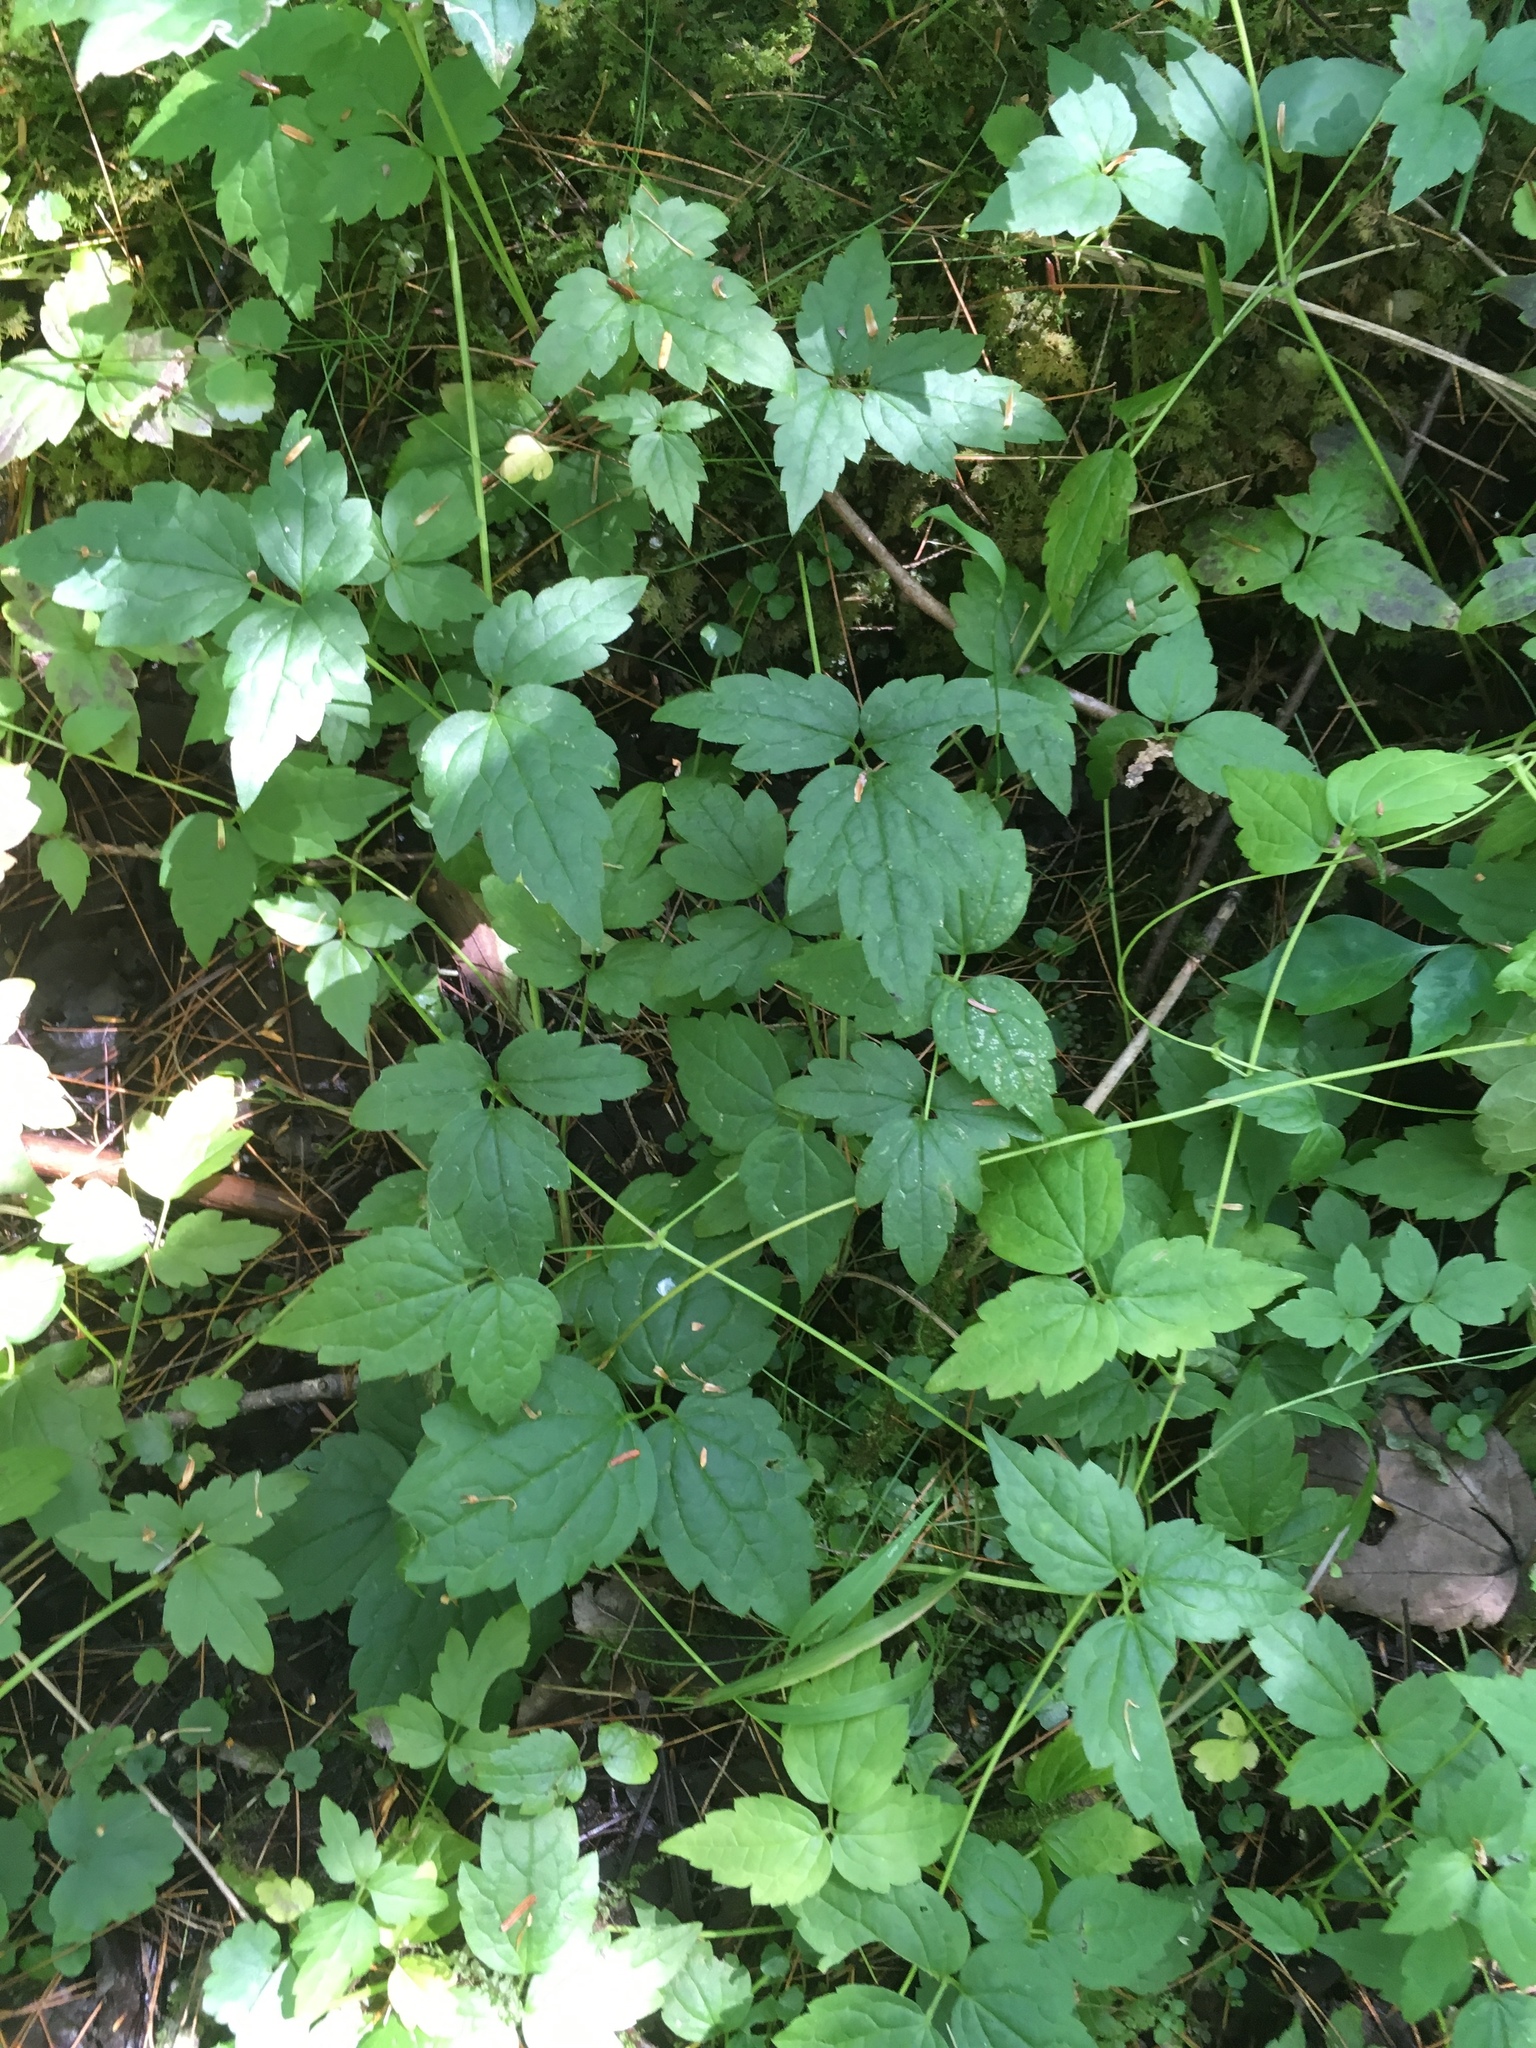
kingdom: Plantae
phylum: Tracheophyta
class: Magnoliopsida
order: Ranunculales
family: Ranunculaceae
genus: Clematis
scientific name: Clematis virginiana
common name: Virgin's-bower
